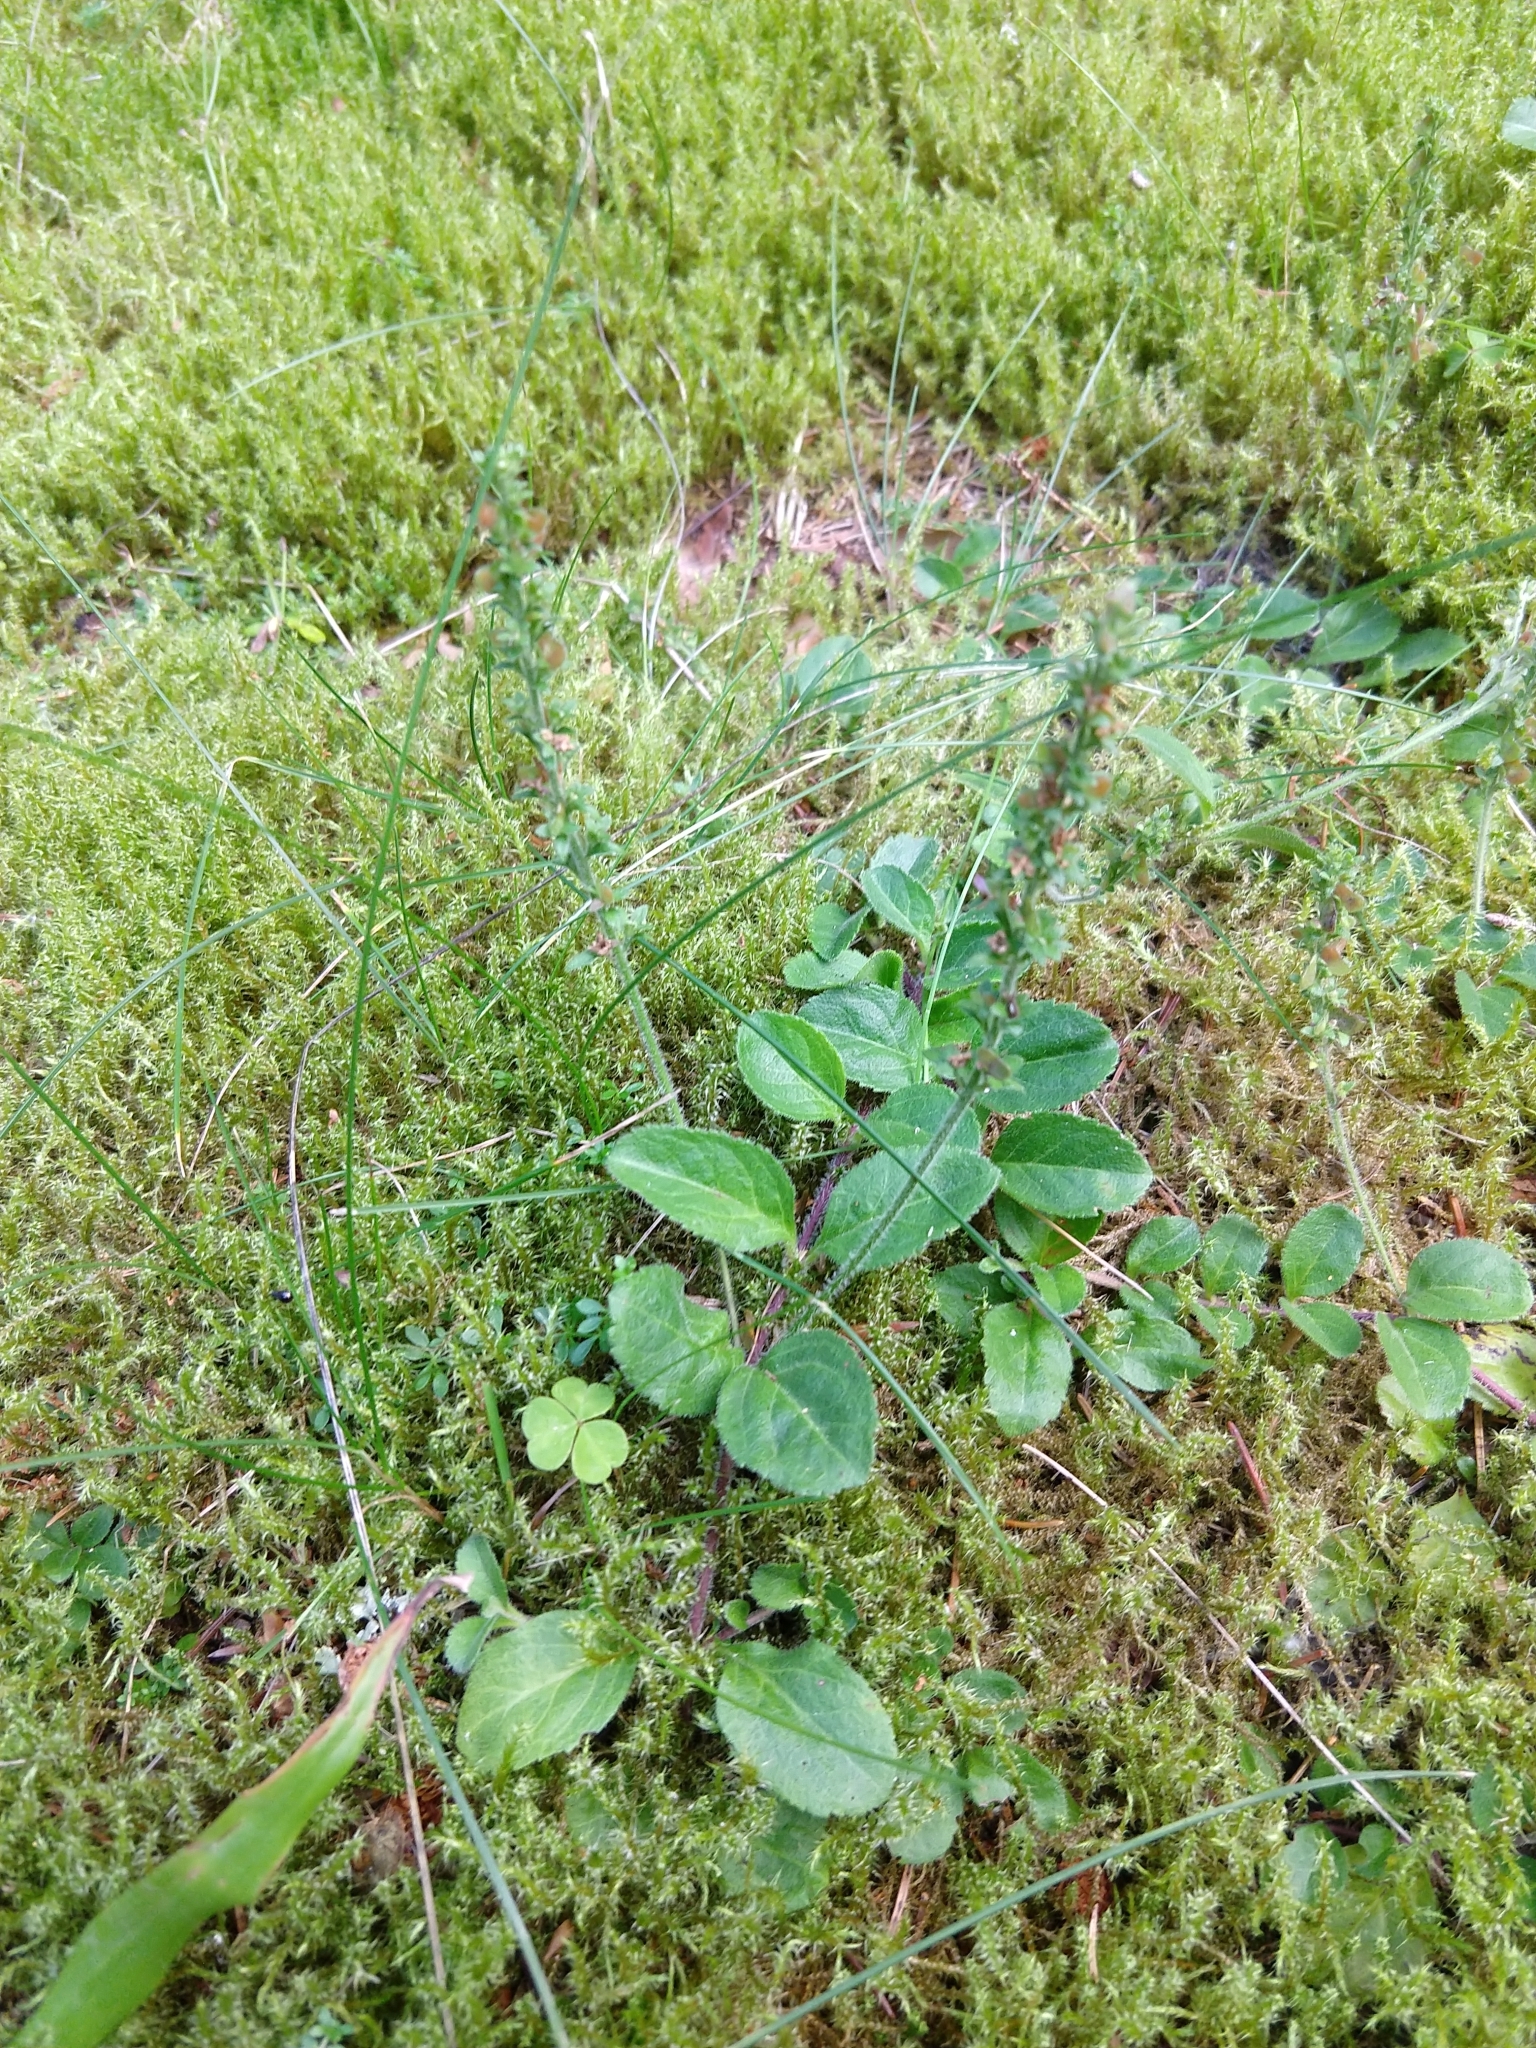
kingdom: Plantae
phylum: Tracheophyta
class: Magnoliopsida
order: Lamiales
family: Plantaginaceae
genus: Veronica
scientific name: Veronica officinalis
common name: Common speedwell
